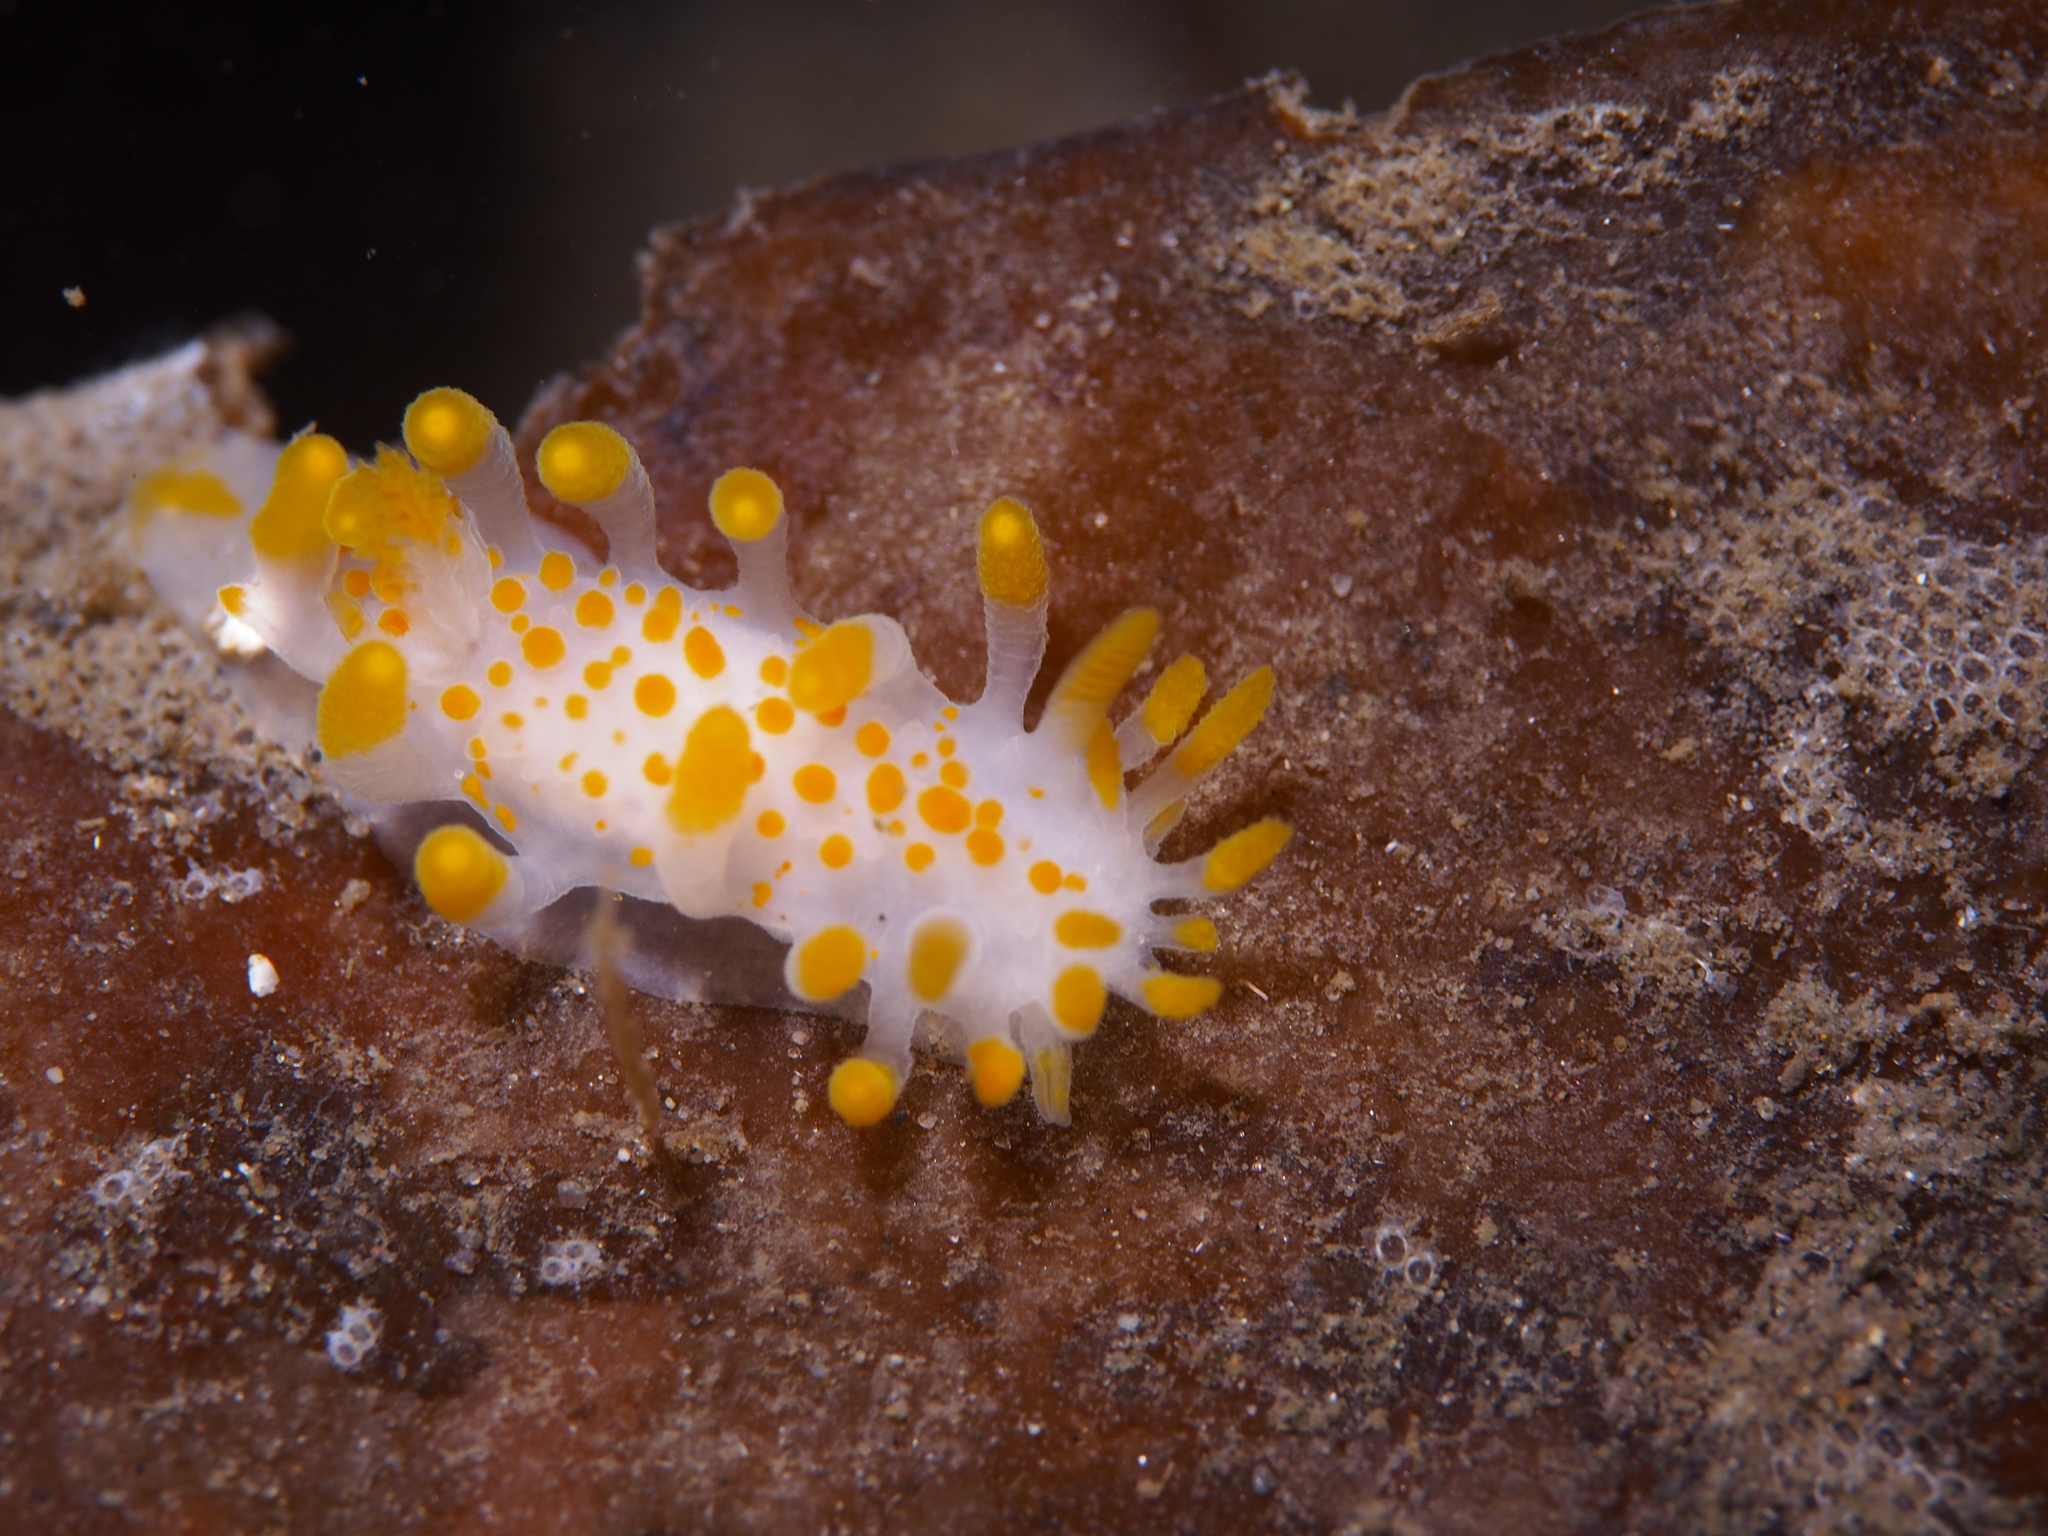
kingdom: Animalia
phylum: Mollusca
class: Gastropoda
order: Nudibranchia
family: Polyceridae
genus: Limacia
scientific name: Limacia clavigera
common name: Orange-clubbed sea slug
